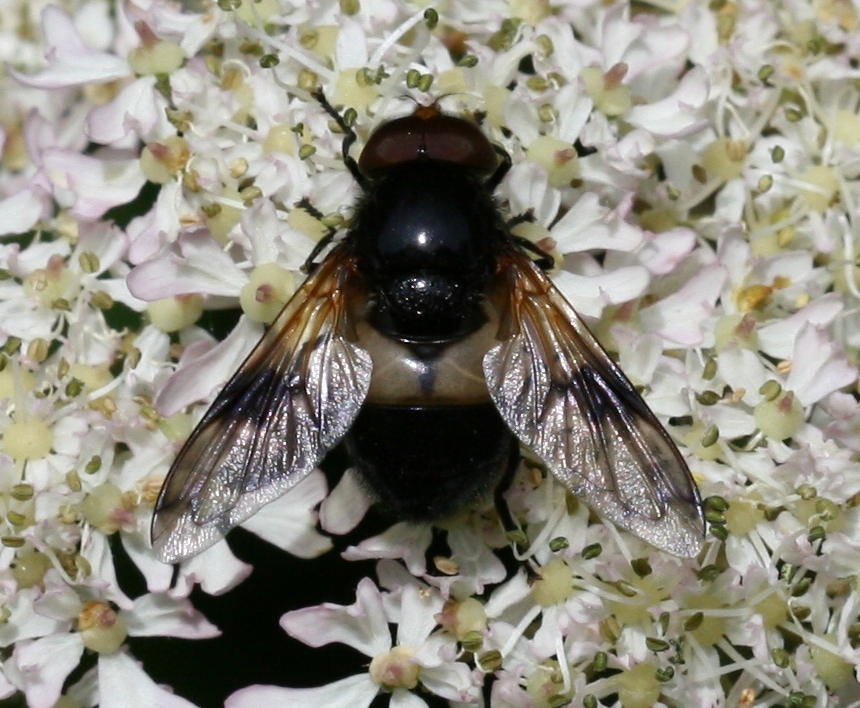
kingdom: Animalia
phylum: Arthropoda
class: Insecta
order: Diptera
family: Syrphidae
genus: Volucella
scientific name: Volucella pellucens
